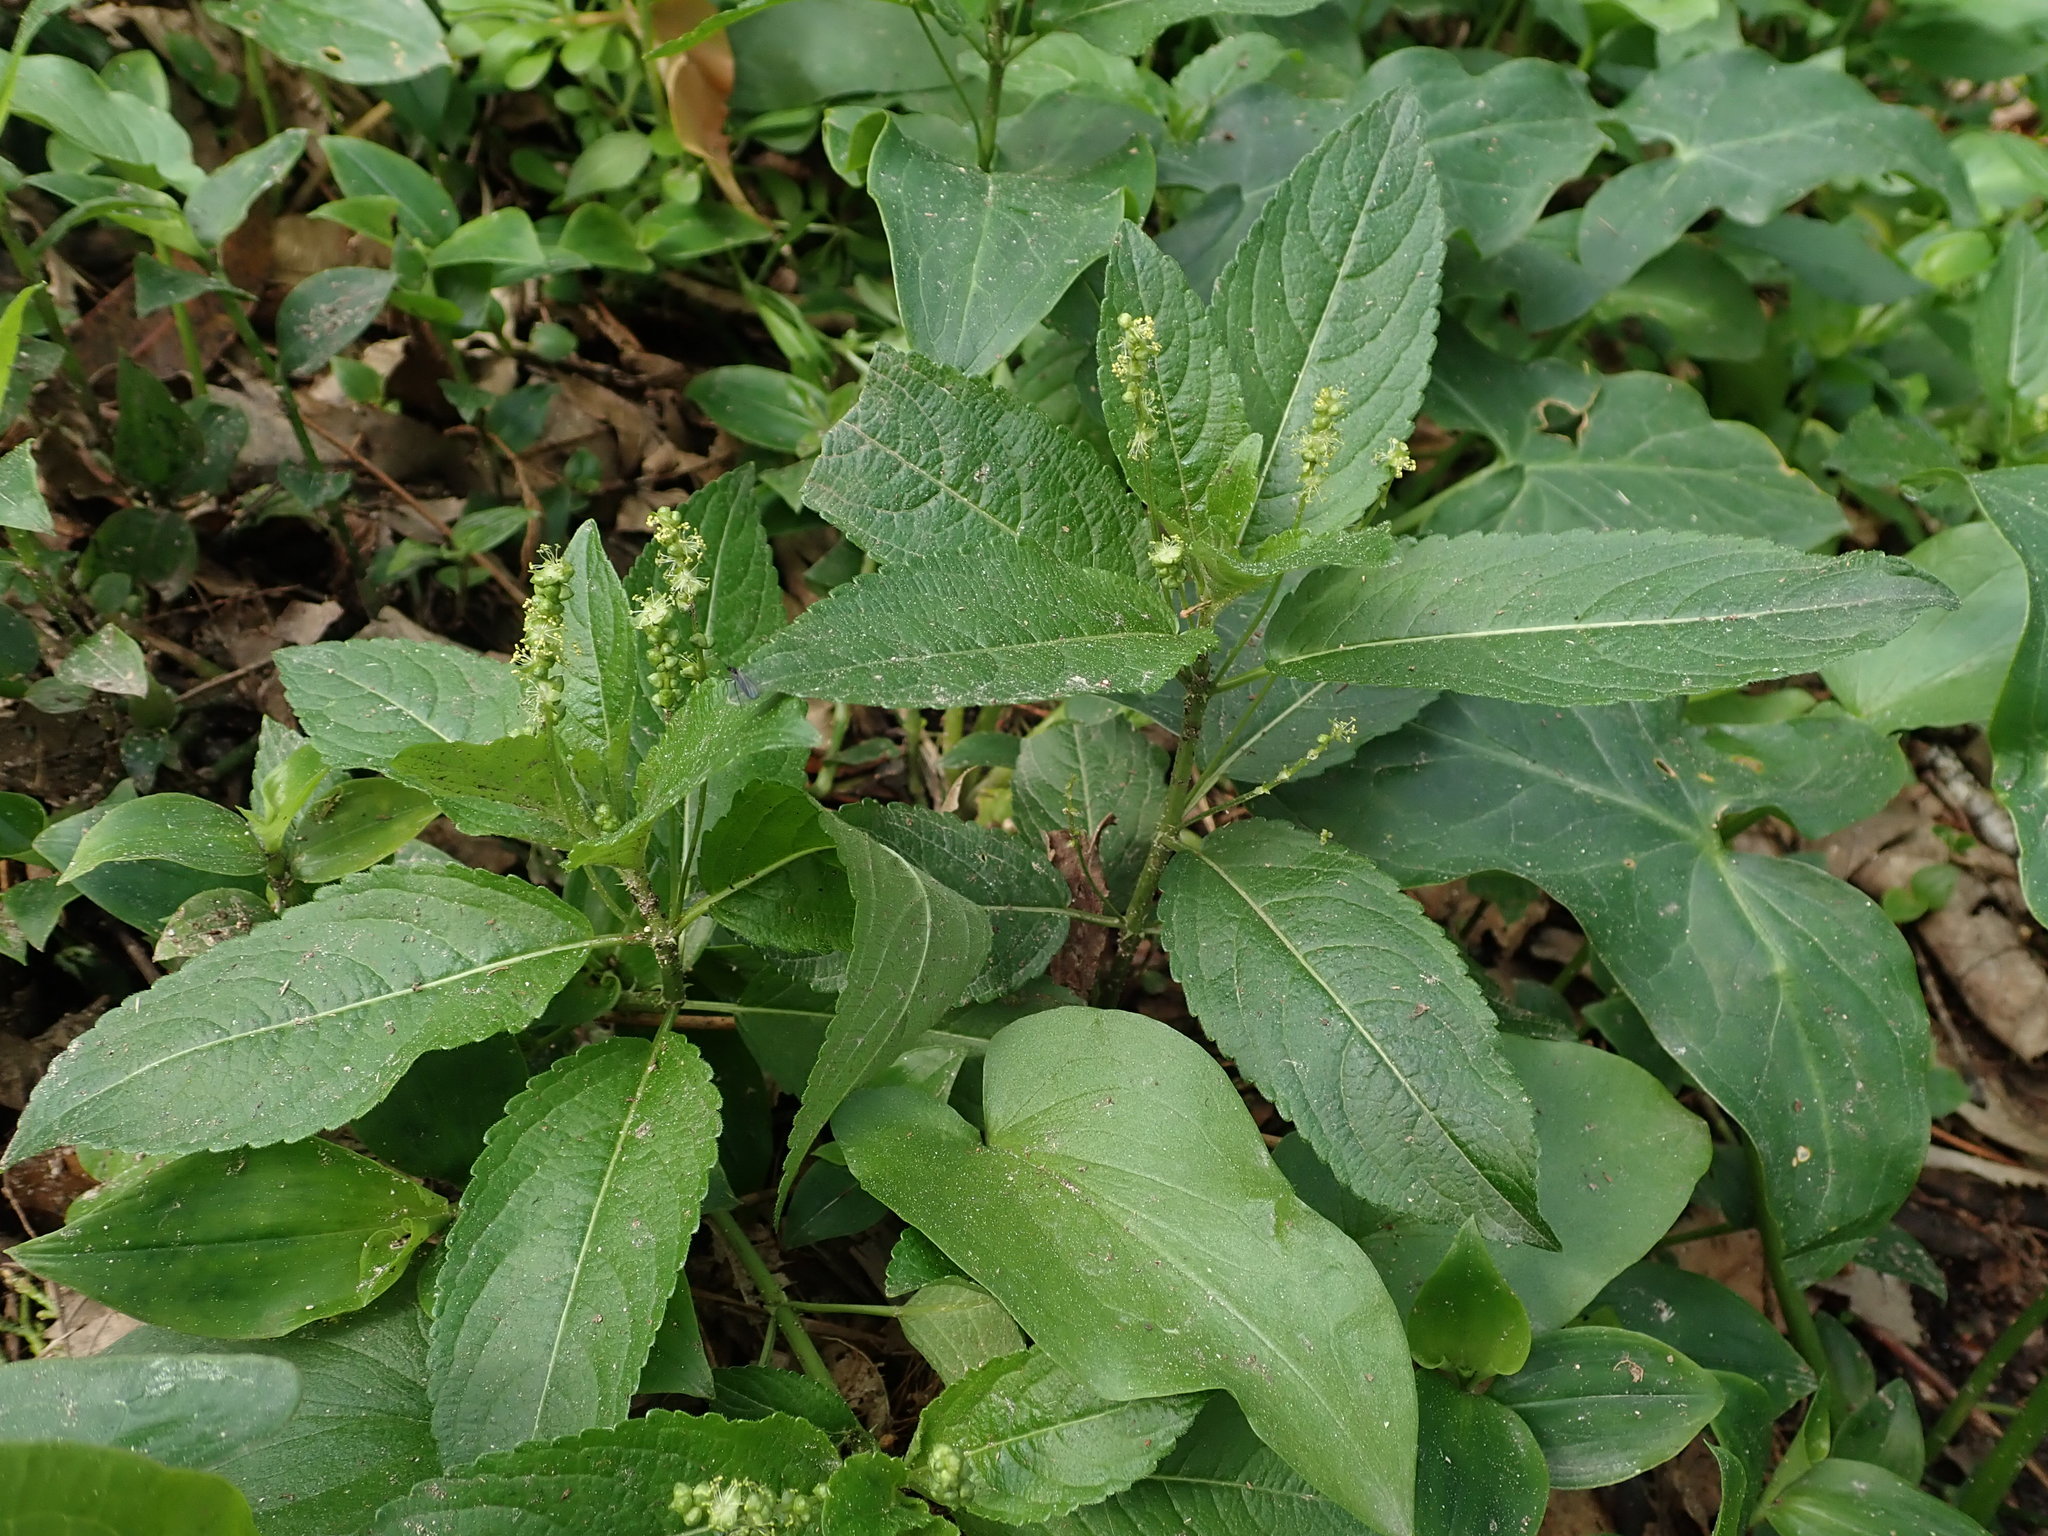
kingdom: Plantae
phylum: Tracheophyta
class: Magnoliopsida
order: Malpighiales
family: Euphorbiaceae
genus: Mercurialis
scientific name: Mercurialis perennis
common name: Dog mercury
